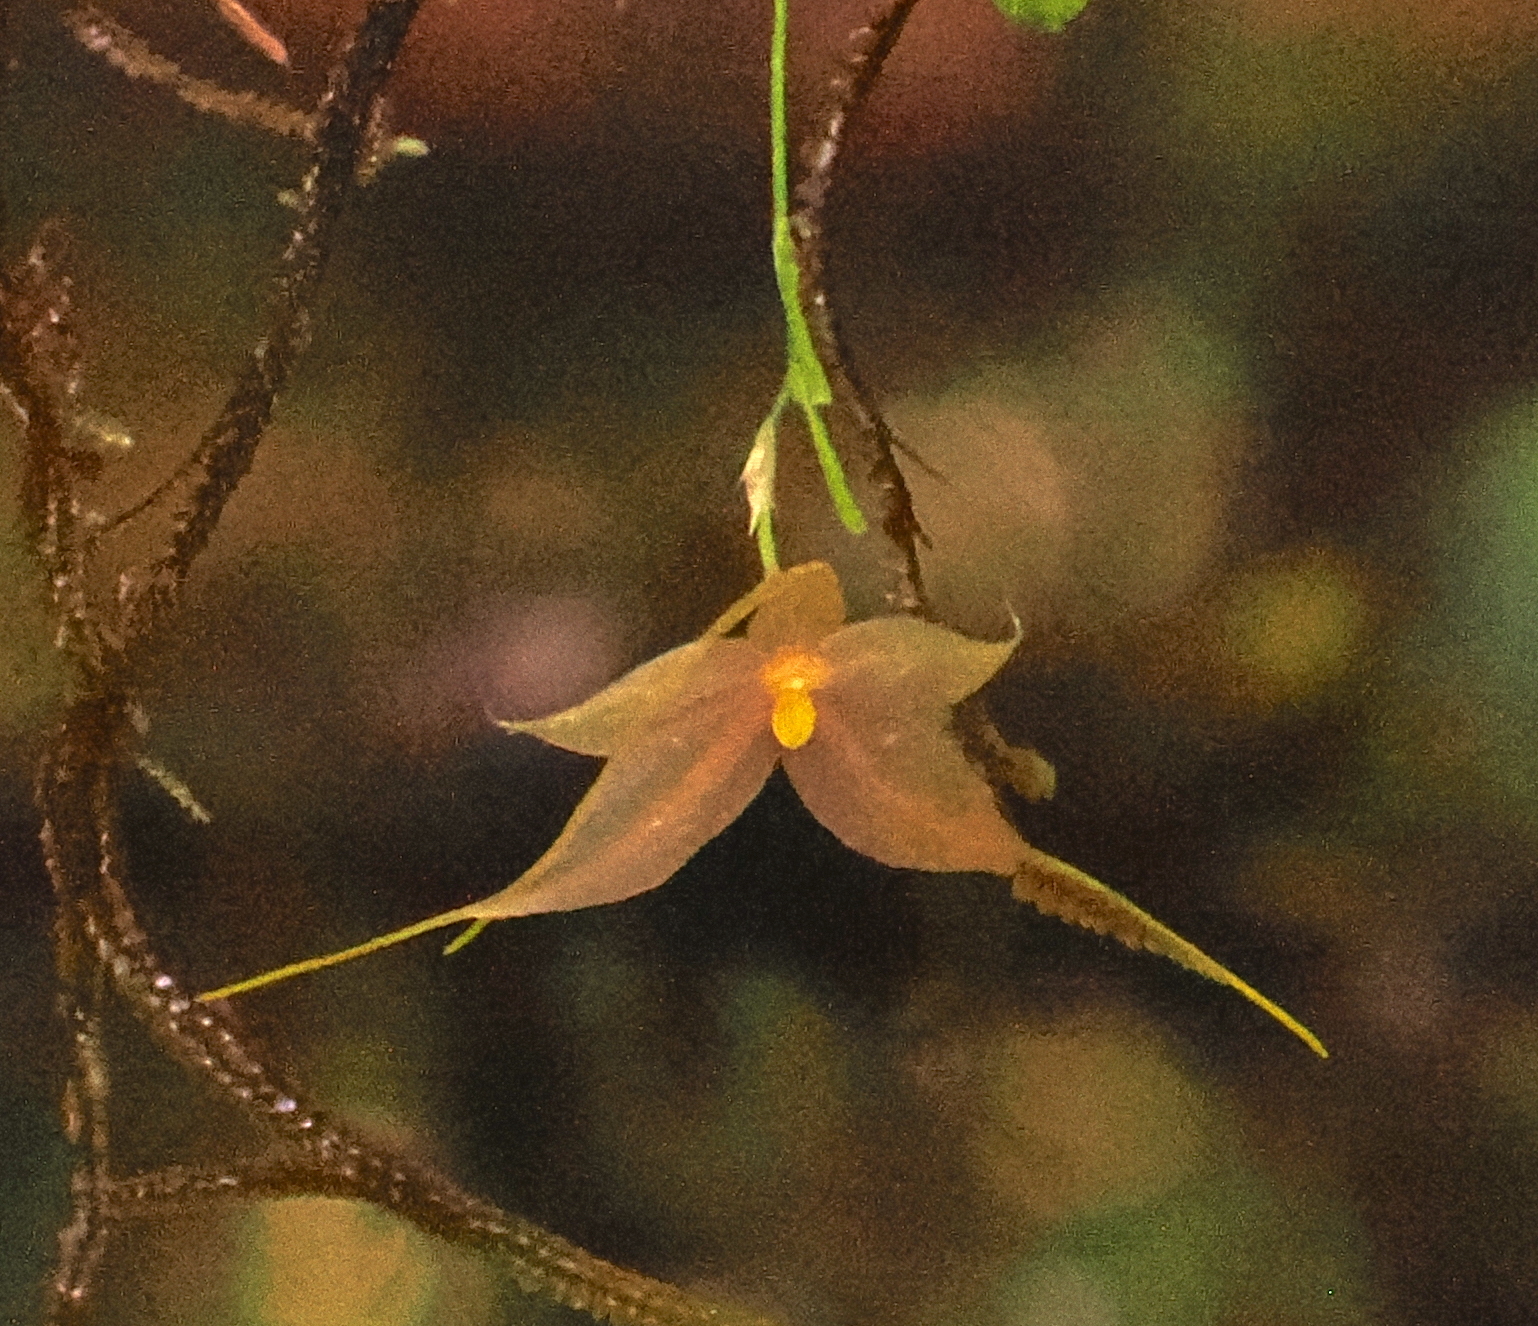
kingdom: Plantae
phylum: Tracheophyta
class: Liliopsida
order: Asparagales
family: Orchidaceae
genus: Platystele
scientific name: Platystele microglossa
